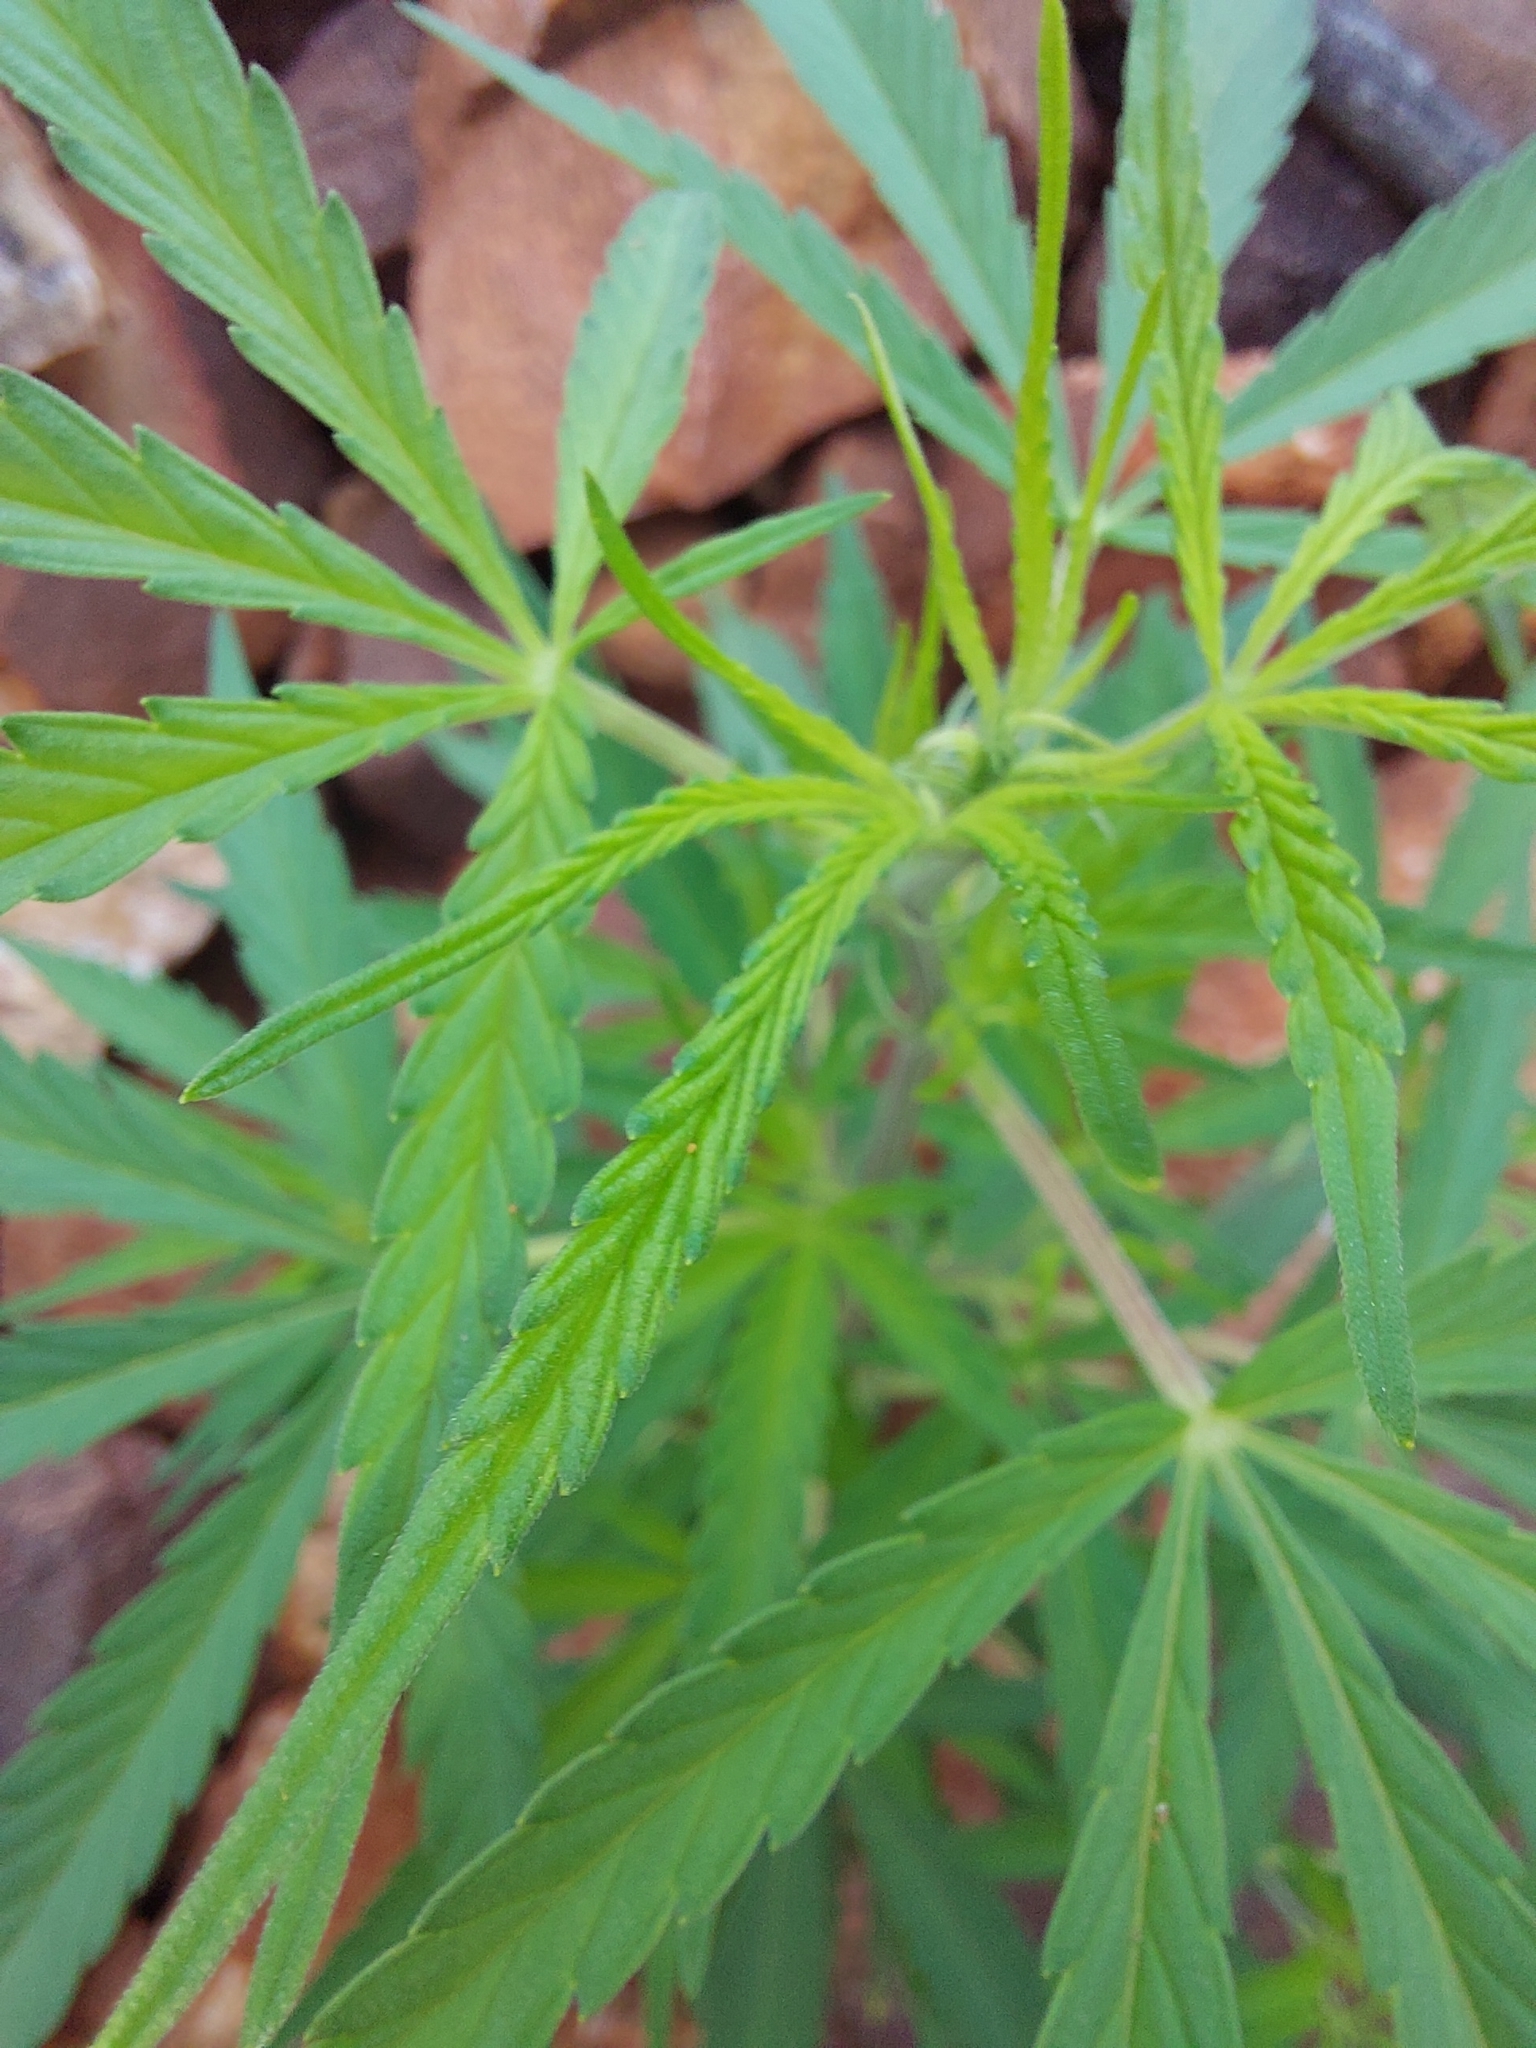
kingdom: Plantae
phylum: Tracheophyta
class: Magnoliopsida
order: Rosales
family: Cannabaceae
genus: Cannabis
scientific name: Cannabis sativa
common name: Hemp
